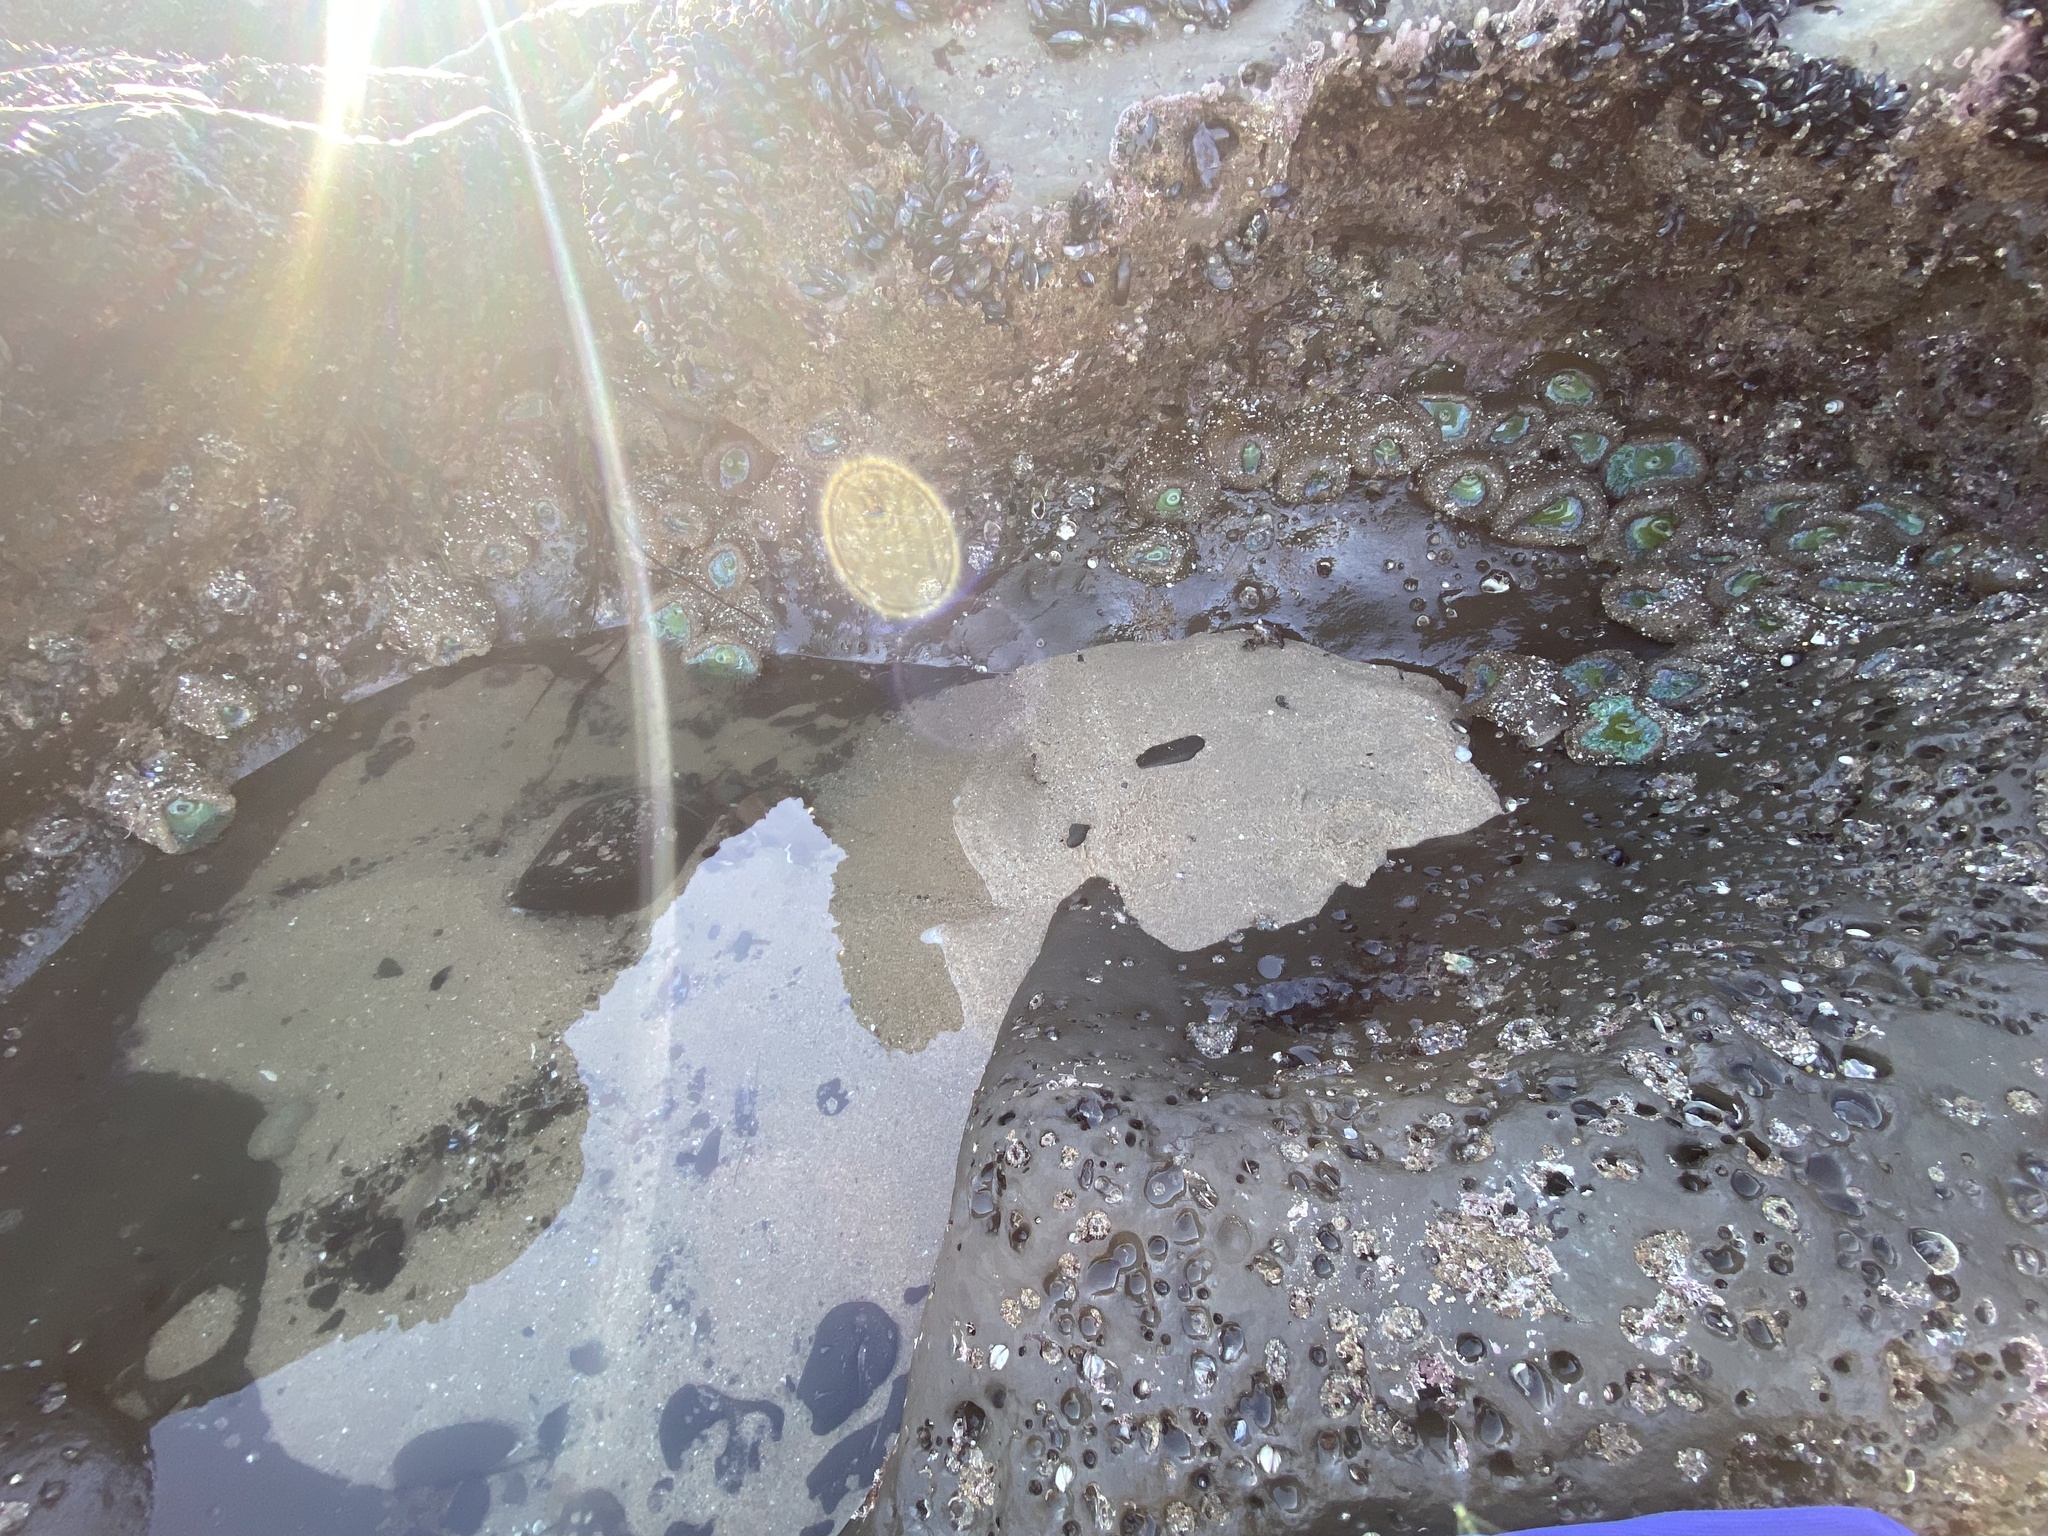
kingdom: Animalia
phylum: Cnidaria
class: Anthozoa
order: Actiniaria
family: Actiniidae
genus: Anthopleura
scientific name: Anthopleura xanthogrammica
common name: Giant green anemone
